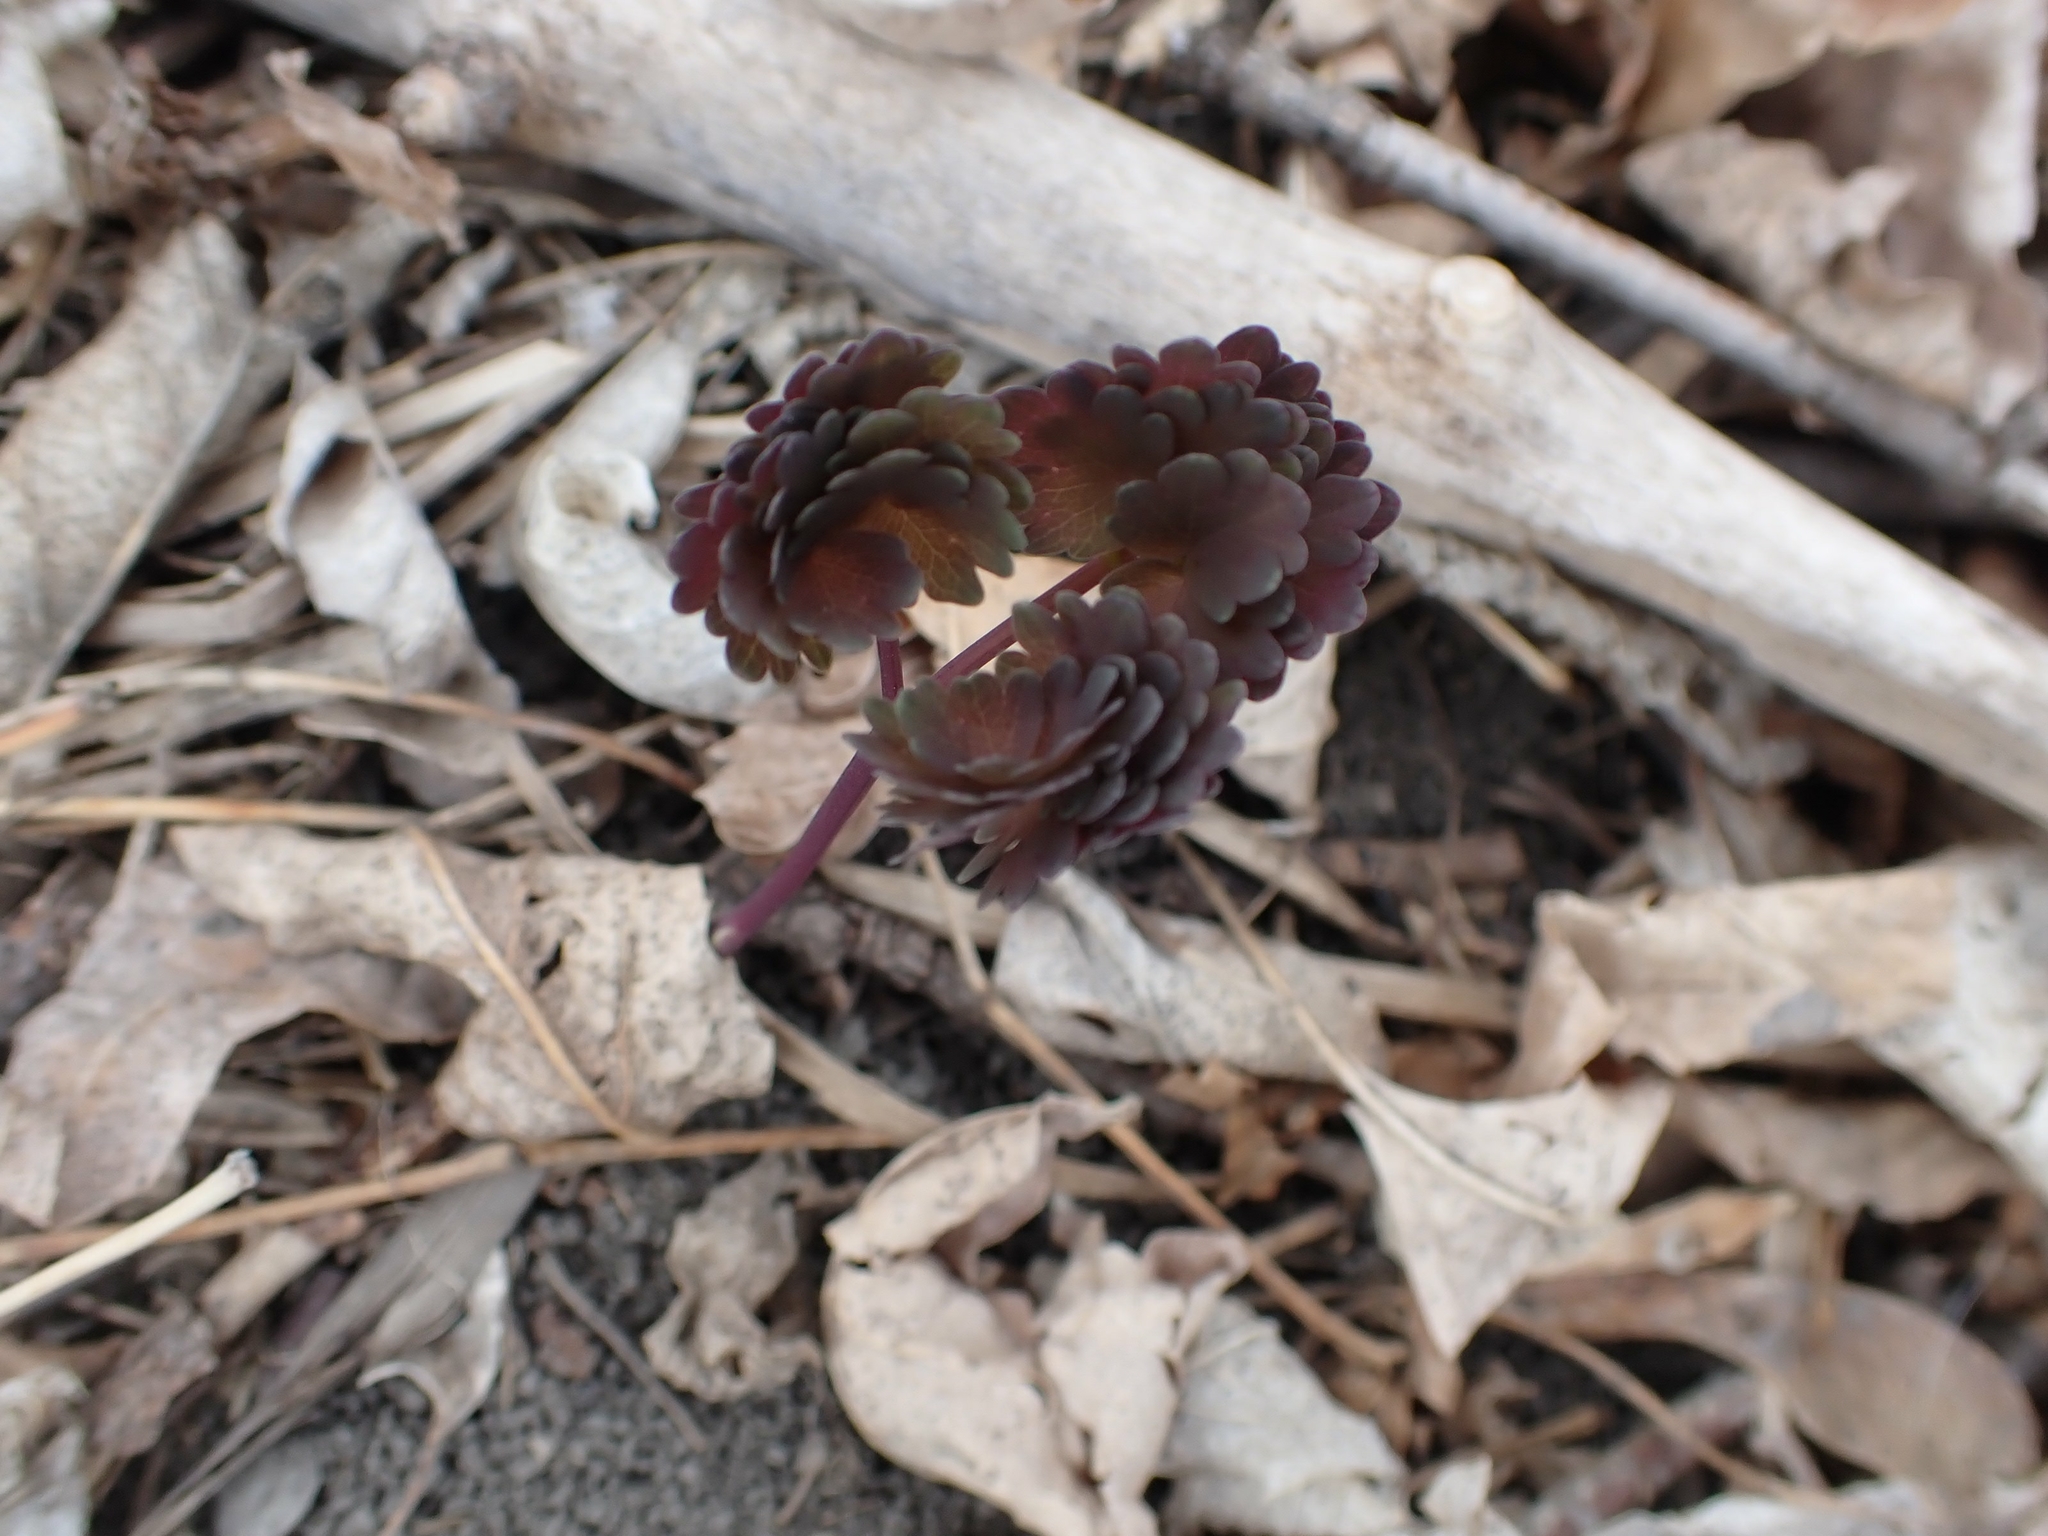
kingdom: Plantae
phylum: Tracheophyta
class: Magnoliopsida
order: Ranunculales
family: Ranunculaceae
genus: Thalictrum
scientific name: Thalictrum venulosum
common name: Early meadow-rue
